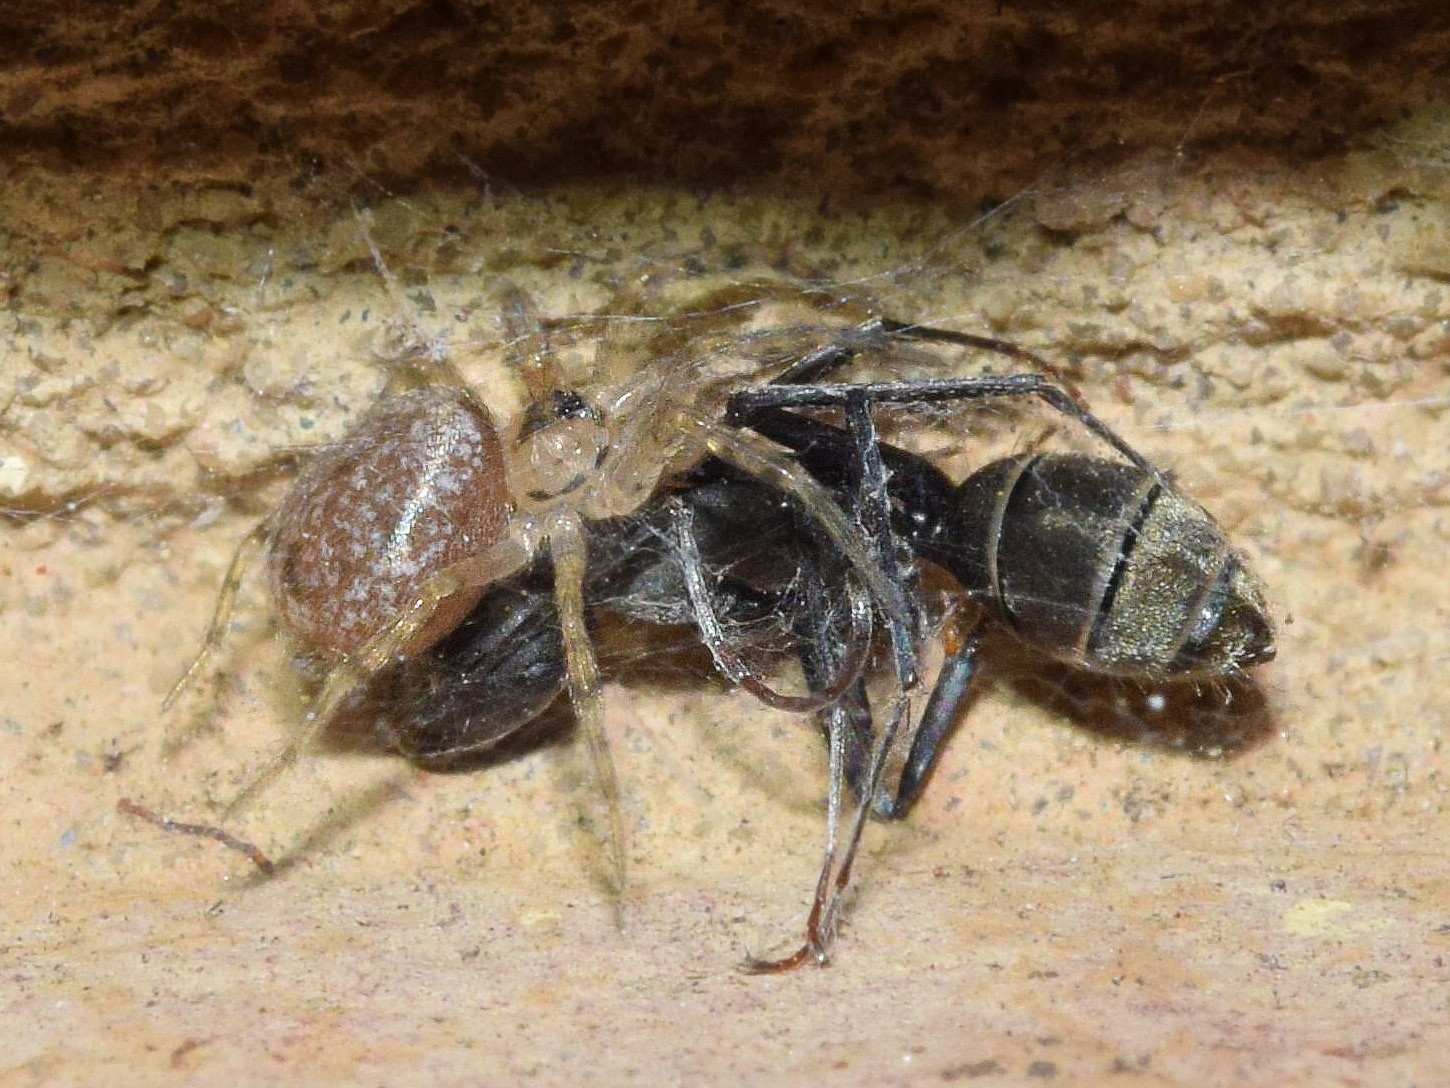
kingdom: Animalia
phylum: Arthropoda
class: Insecta
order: Hymenoptera
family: Formicidae
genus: Camponotus
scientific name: Camponotus cinctellus
